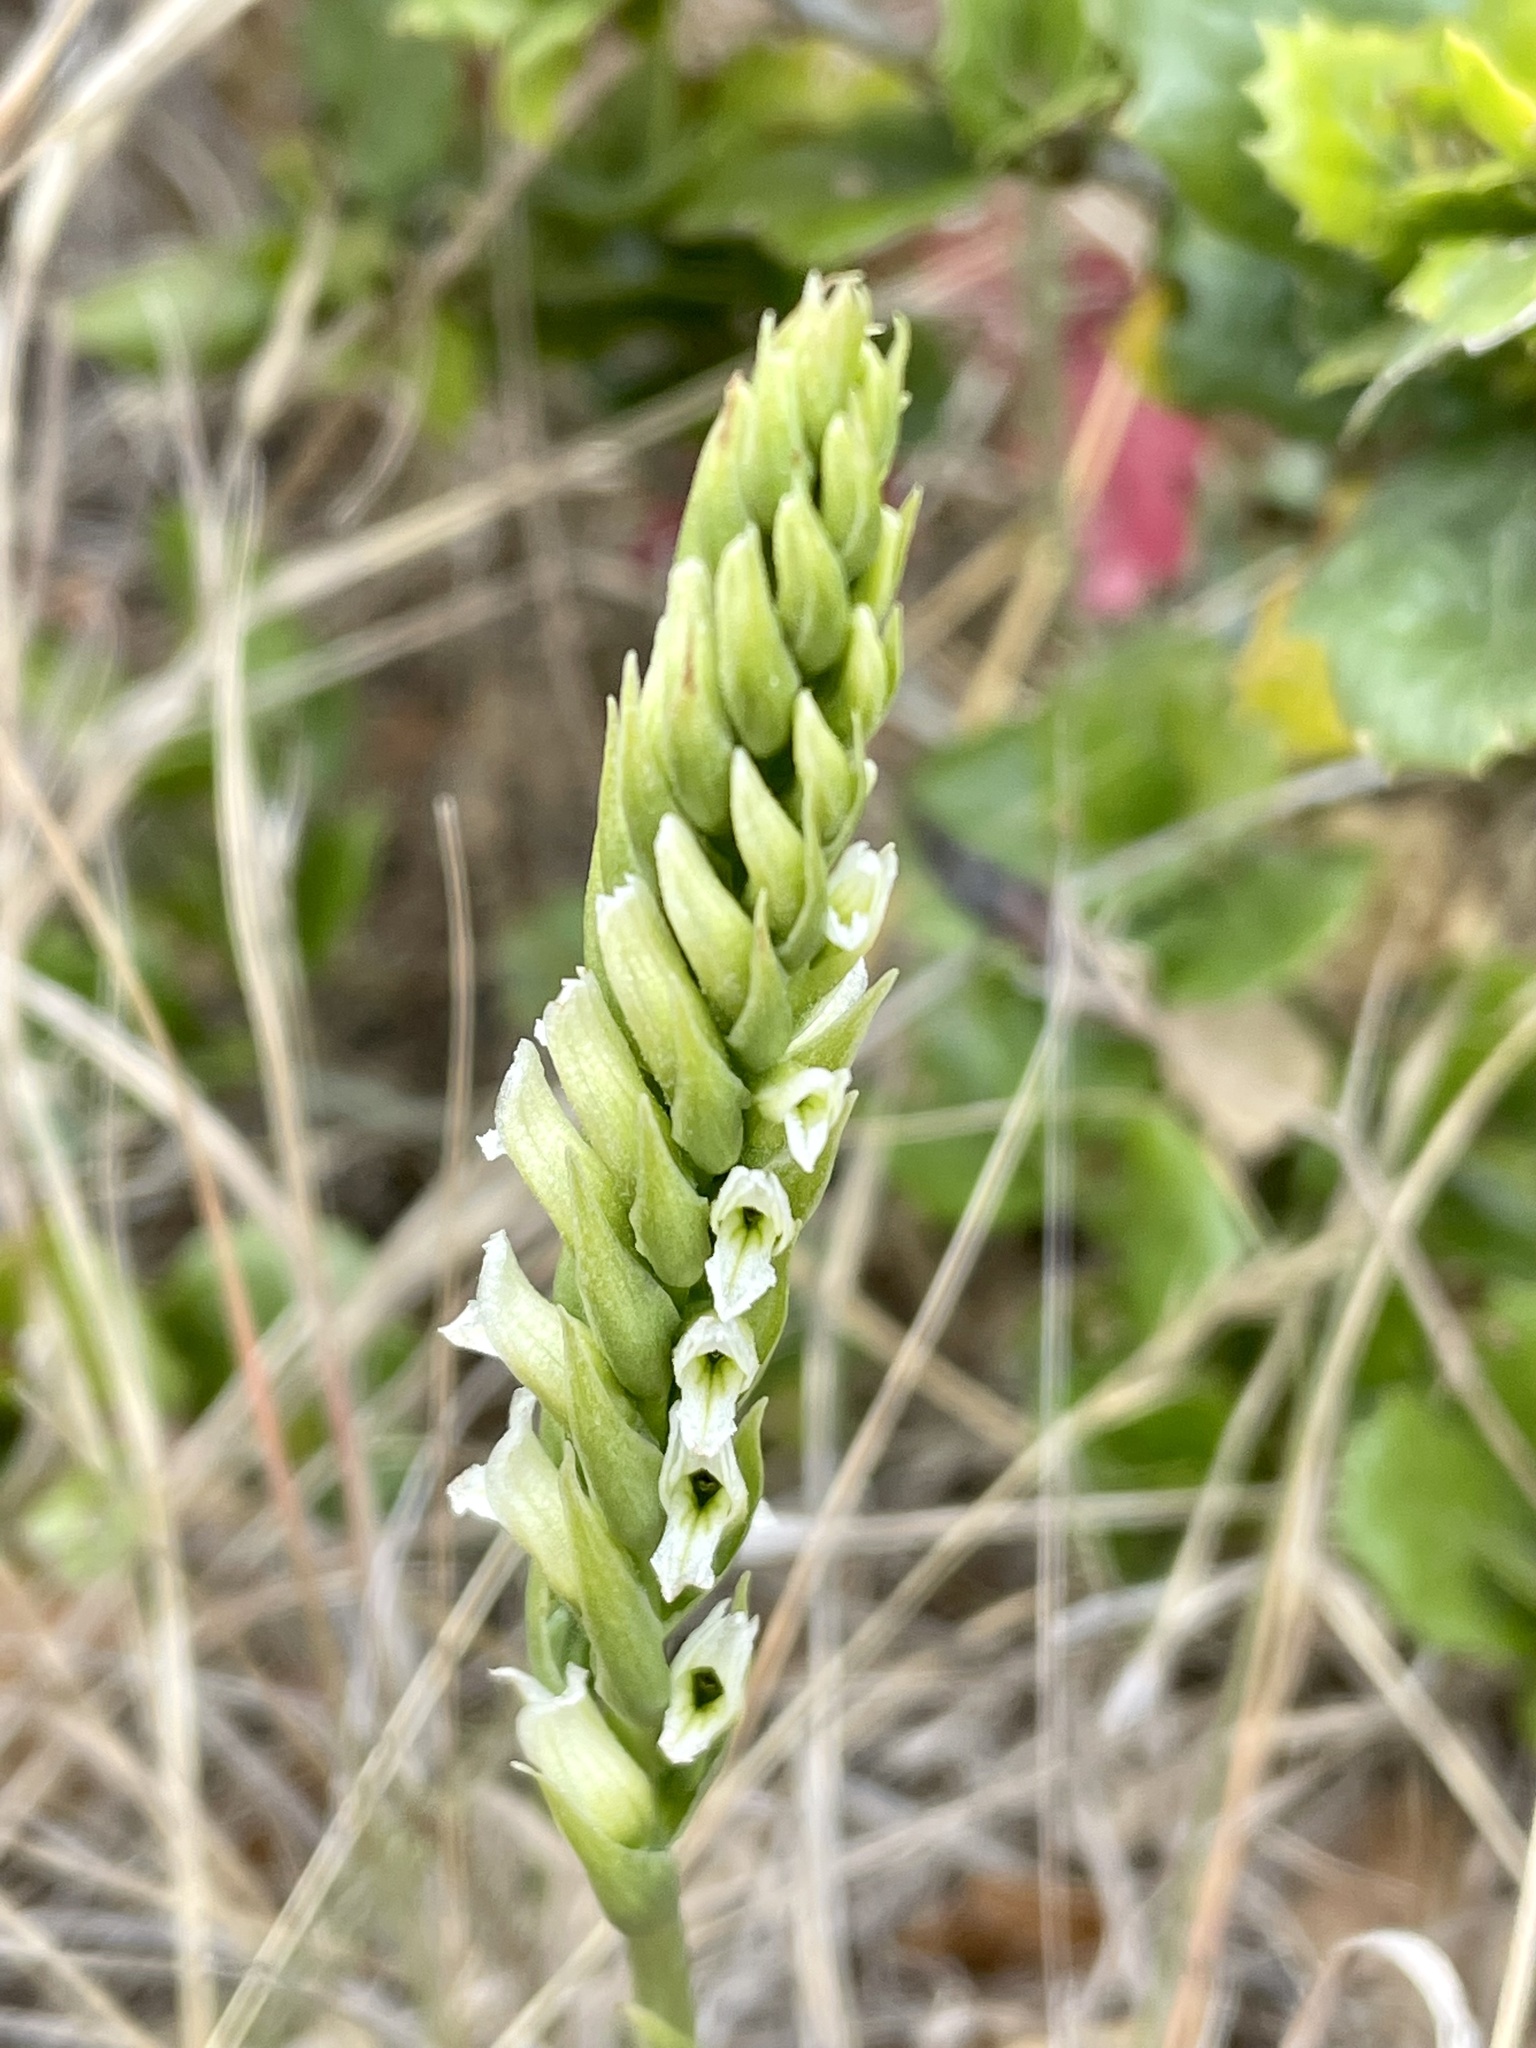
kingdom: Plantae
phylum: Tracheophyta
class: Liliopsida
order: Asparagales
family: Orchidaceae
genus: Spiranthes
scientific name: Spiranthes romanzoffiana
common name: Irish lady's-tresses
